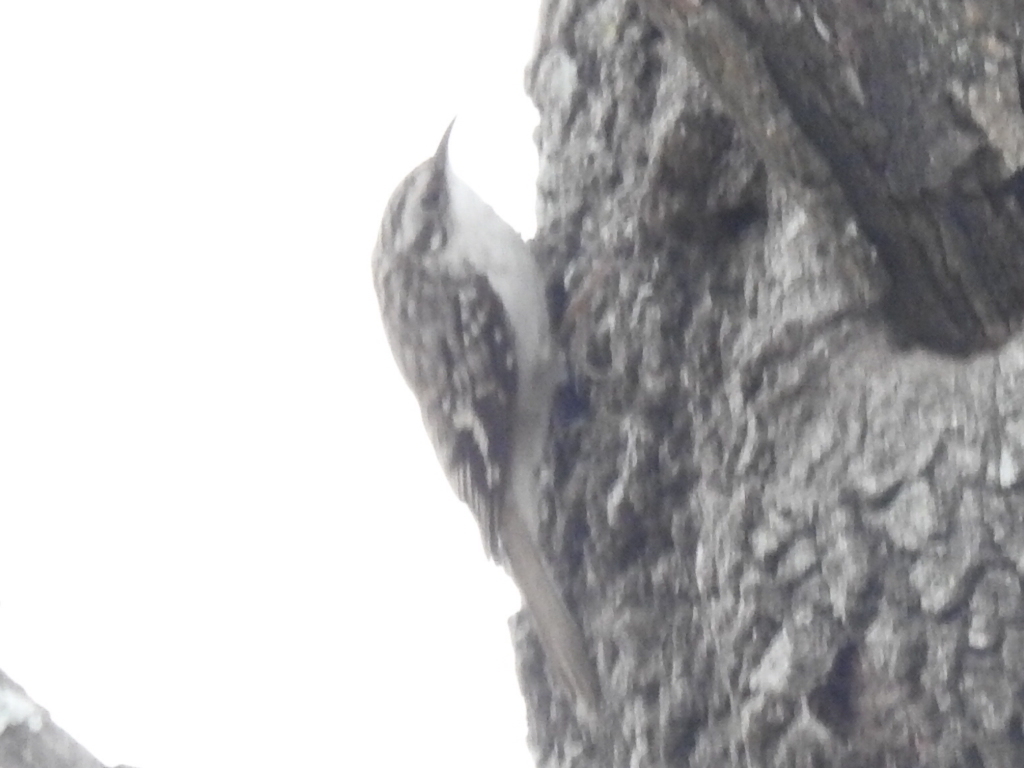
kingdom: Animalia
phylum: Chordata
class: Aves
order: Passeriformes
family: Certhiidae
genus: Certhia
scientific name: Certhia americana
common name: Brown creeper
